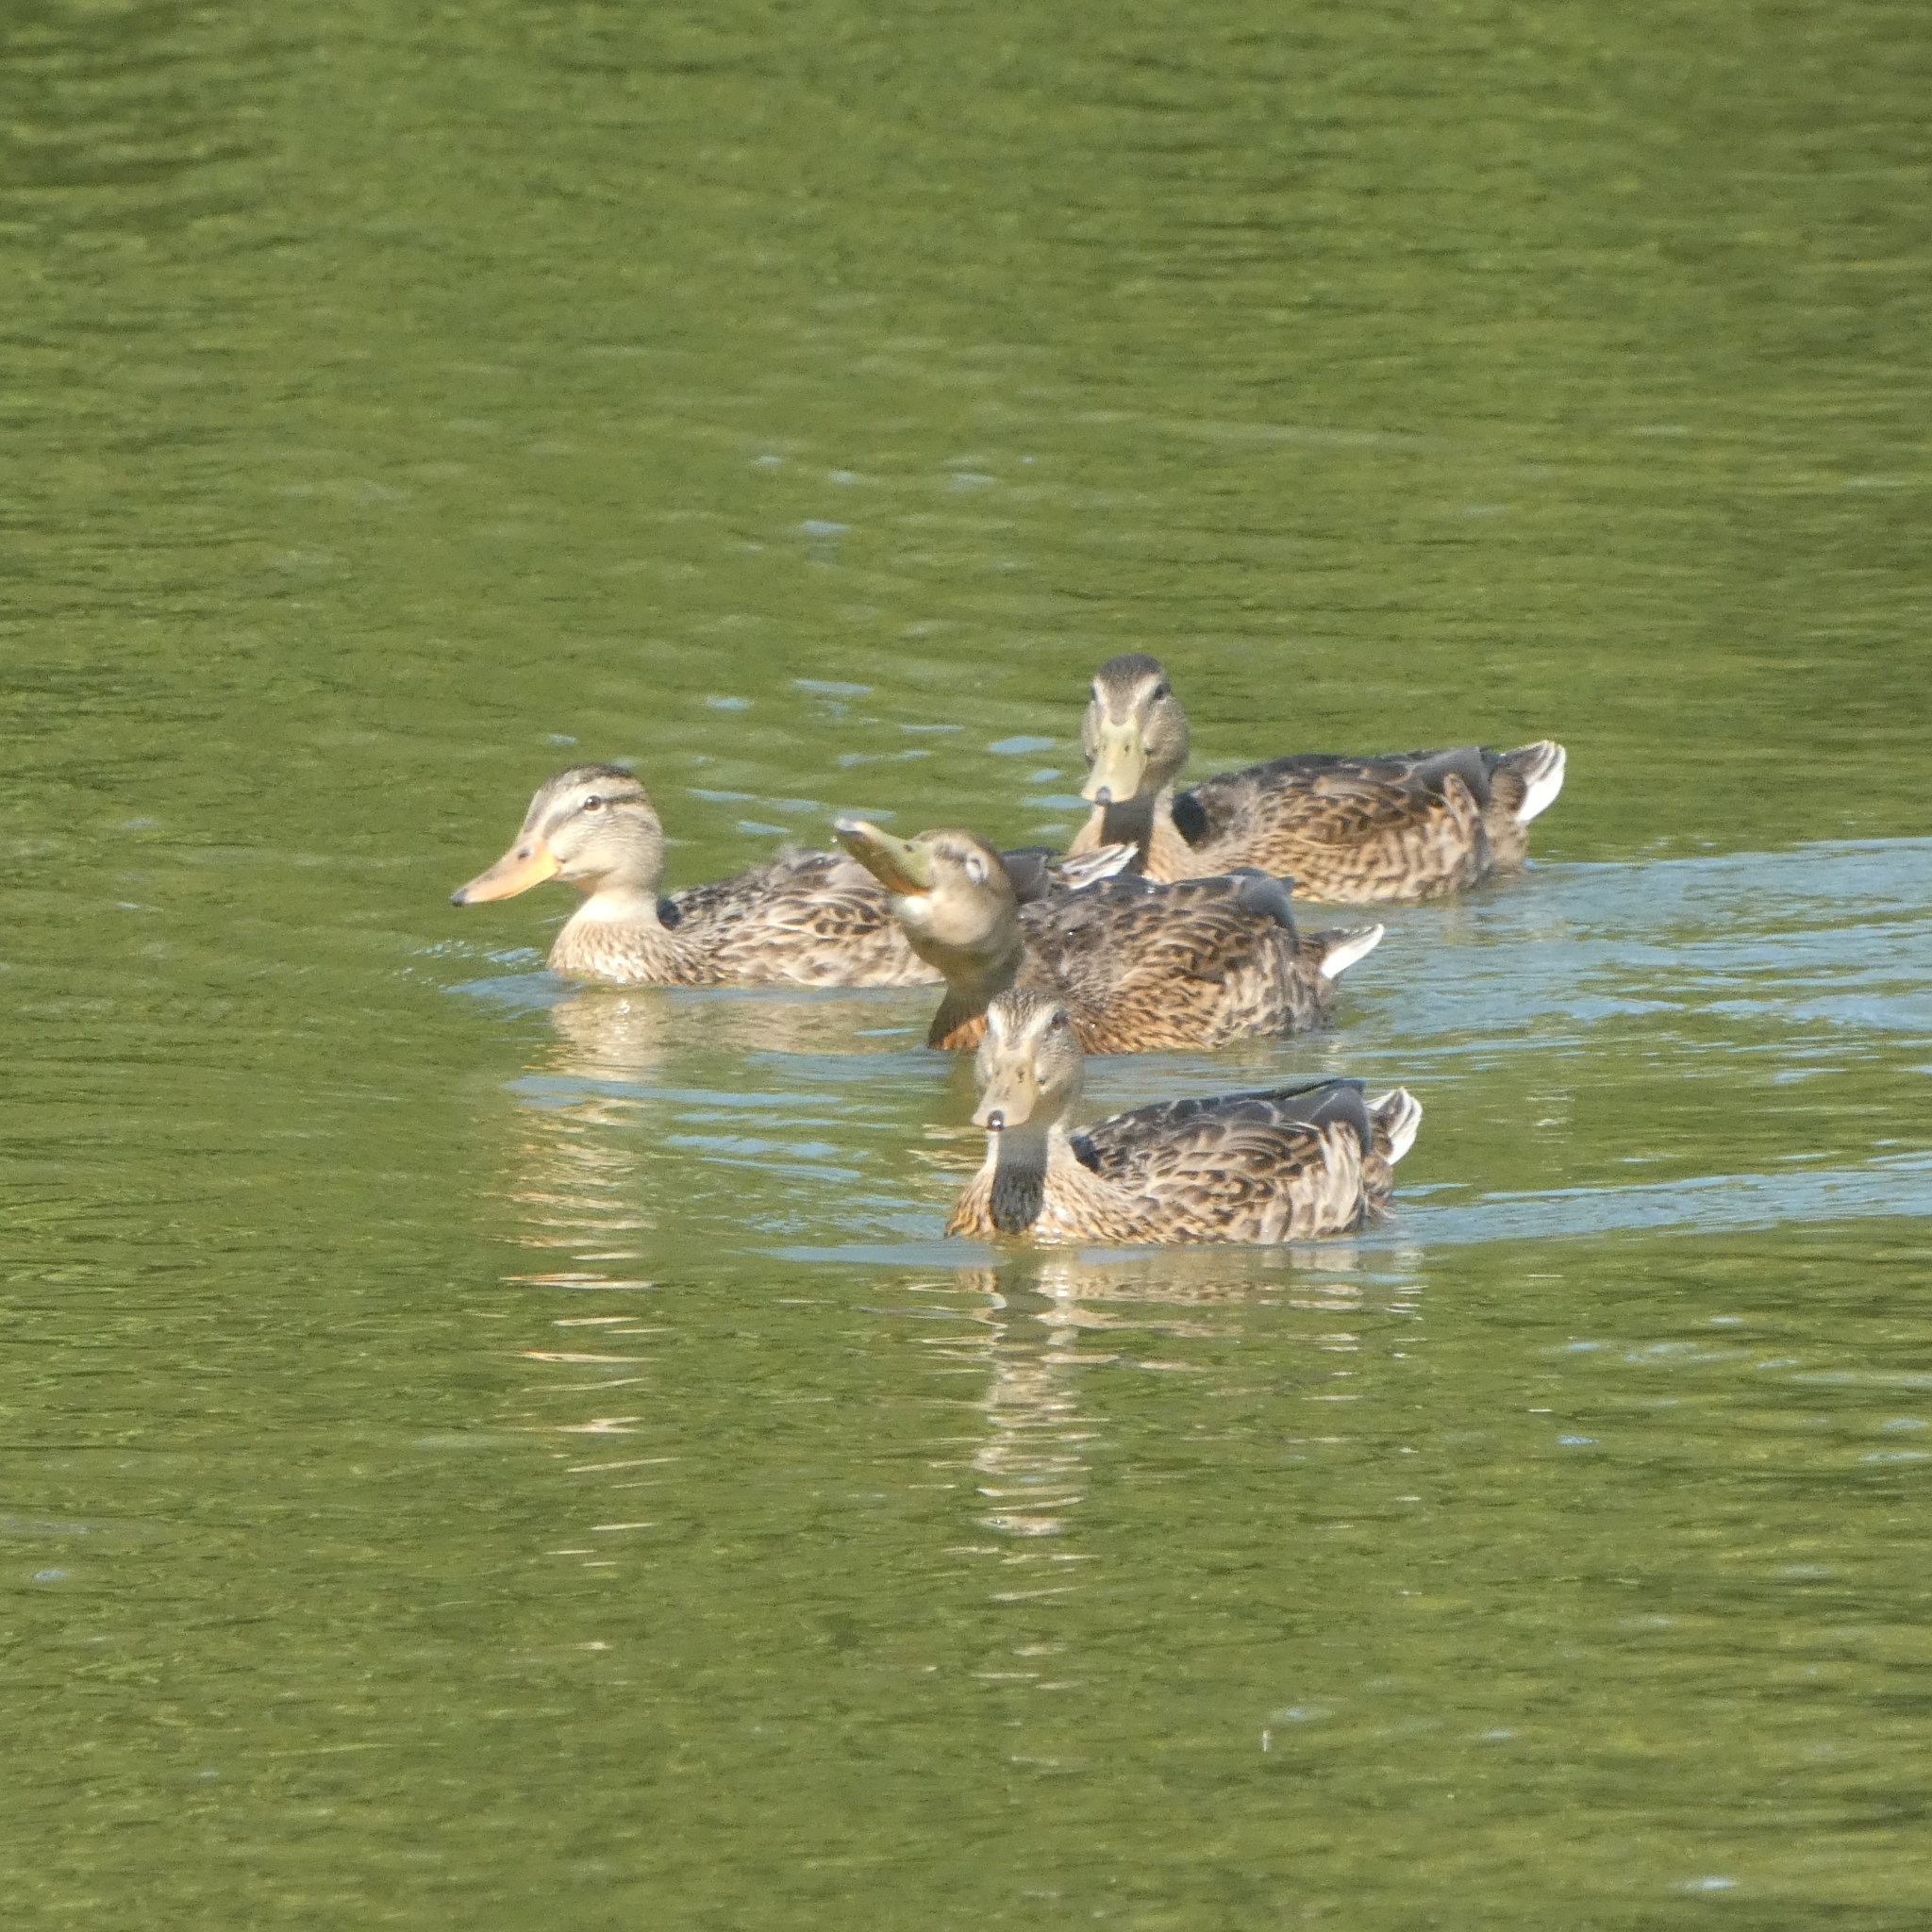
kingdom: Animalia
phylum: Chordata
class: Aves
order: Anseriformes
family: Anatidae
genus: Anas
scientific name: Anas platyrhynchos
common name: Mallard
